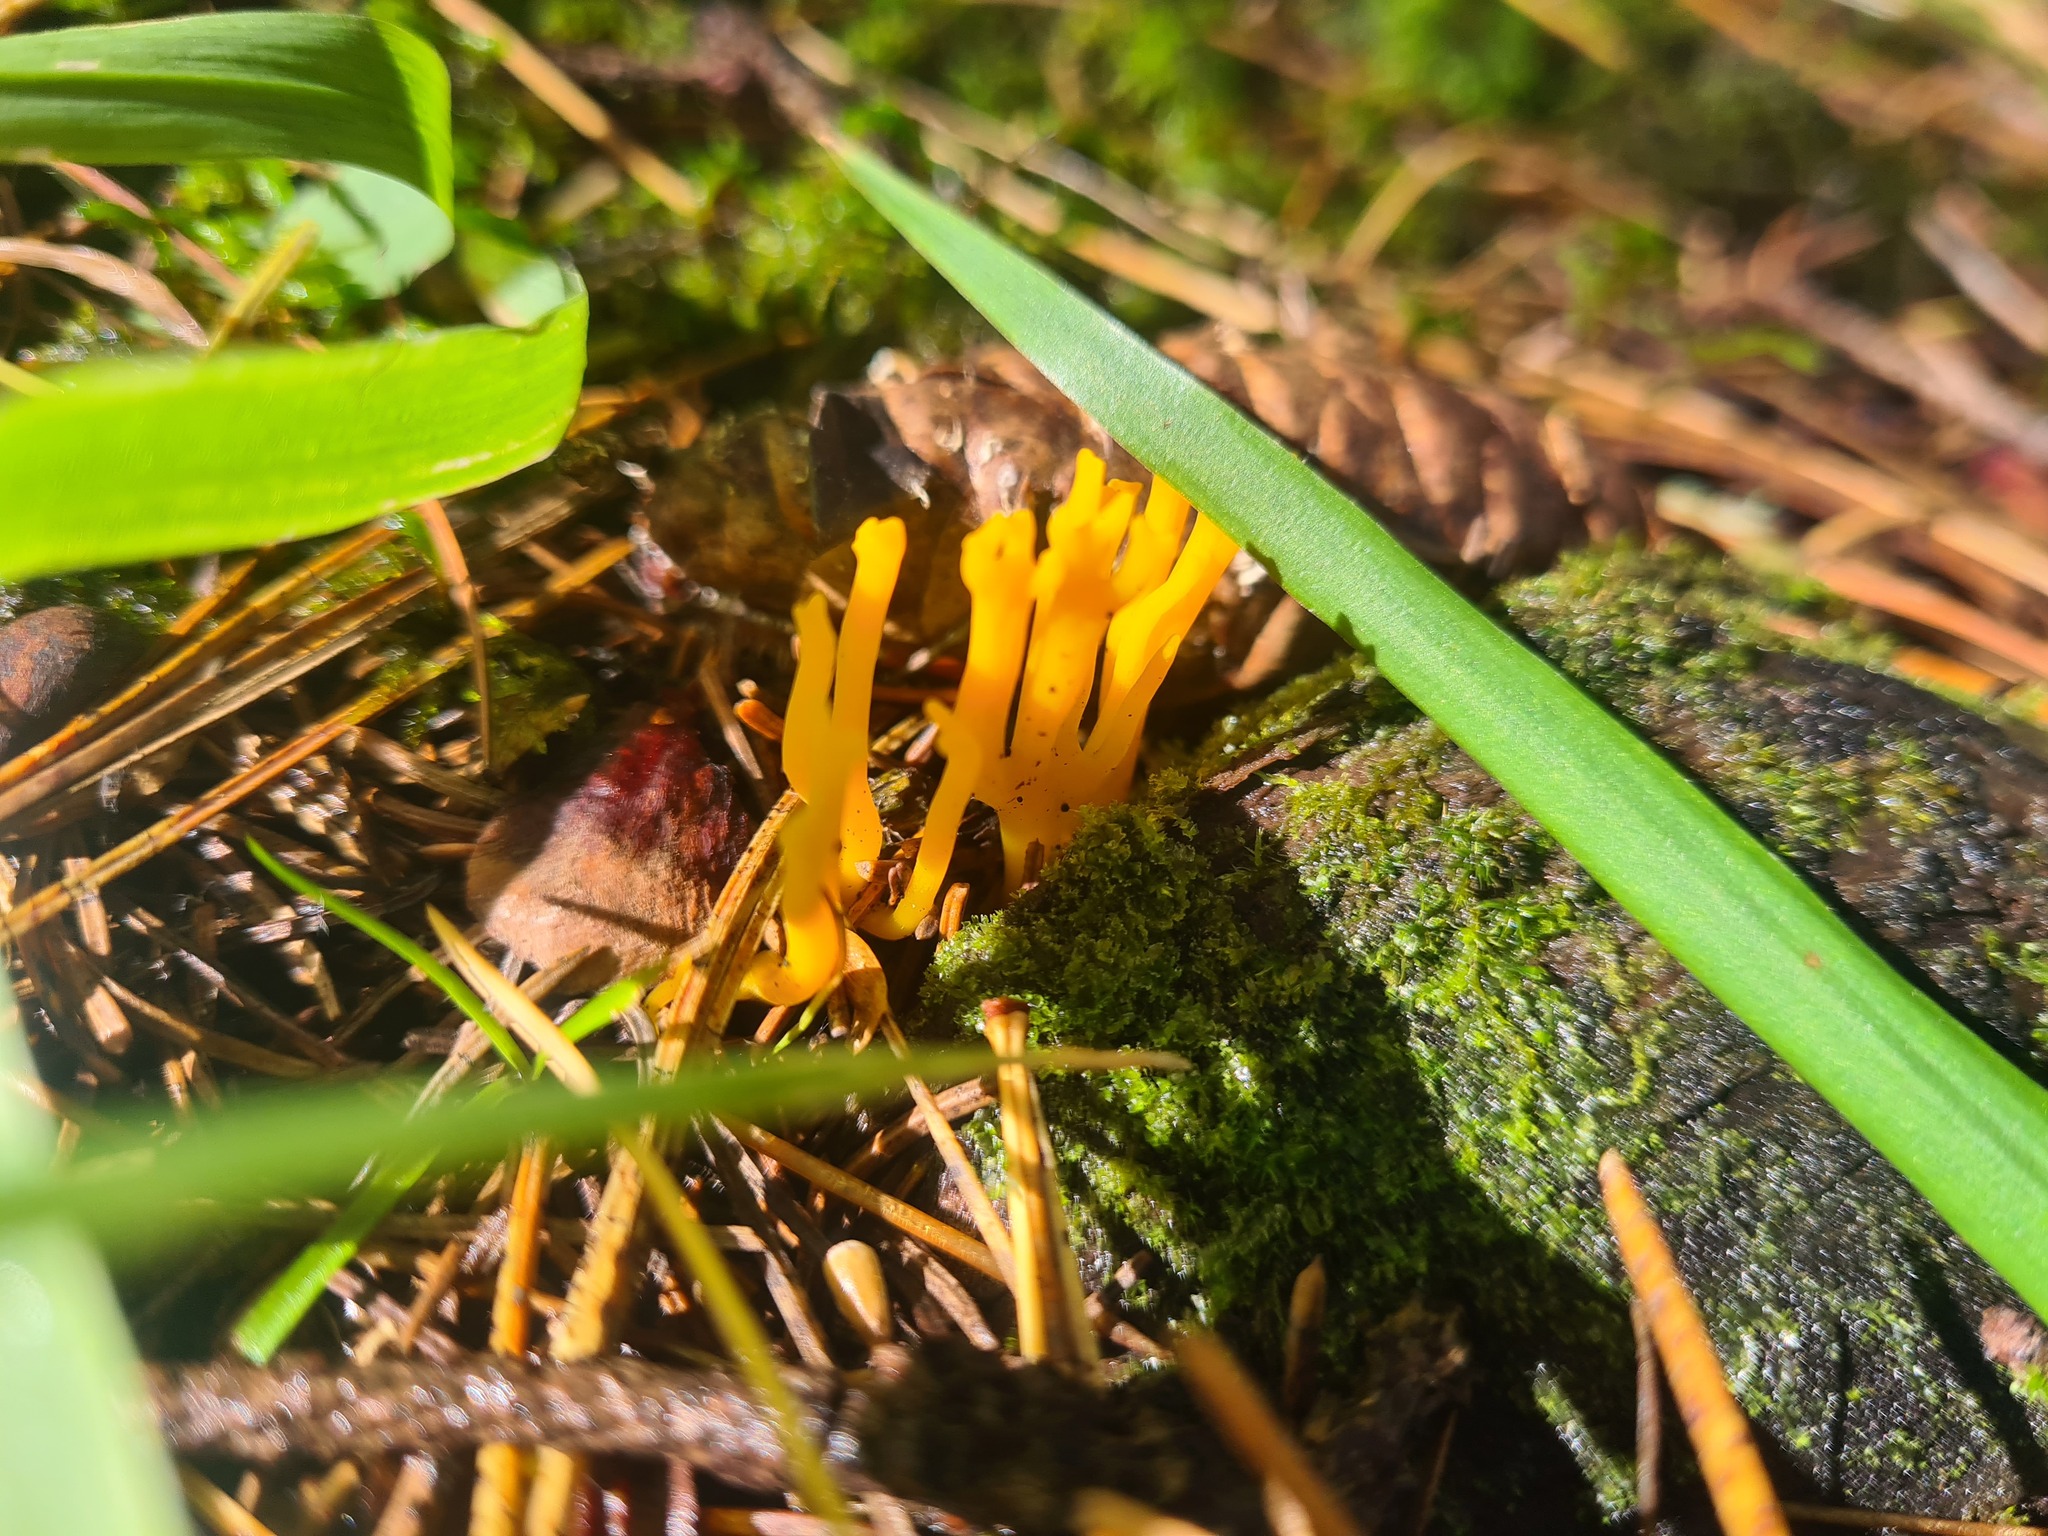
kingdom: Fungi
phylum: Basidiomycota
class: Dacrymycetes
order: Dacrymycetales
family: Dacrymycetaceae
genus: Calocera
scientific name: Calocera viscosa
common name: Yellow stagshorn
